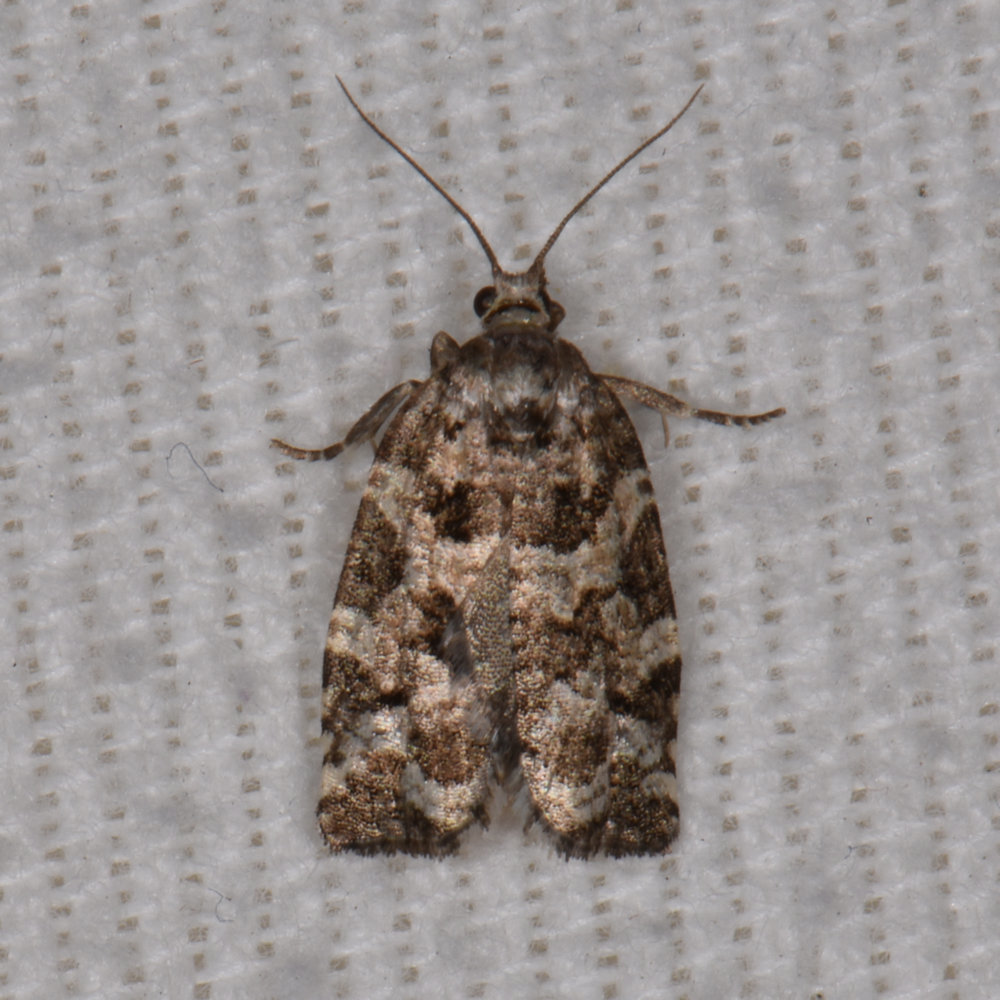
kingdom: Animalia
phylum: Arthropoda
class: Insecta
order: Lepidoptera
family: Tortricidae
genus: Archips
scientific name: Archips packardiana
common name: Spring spruce needle moth
